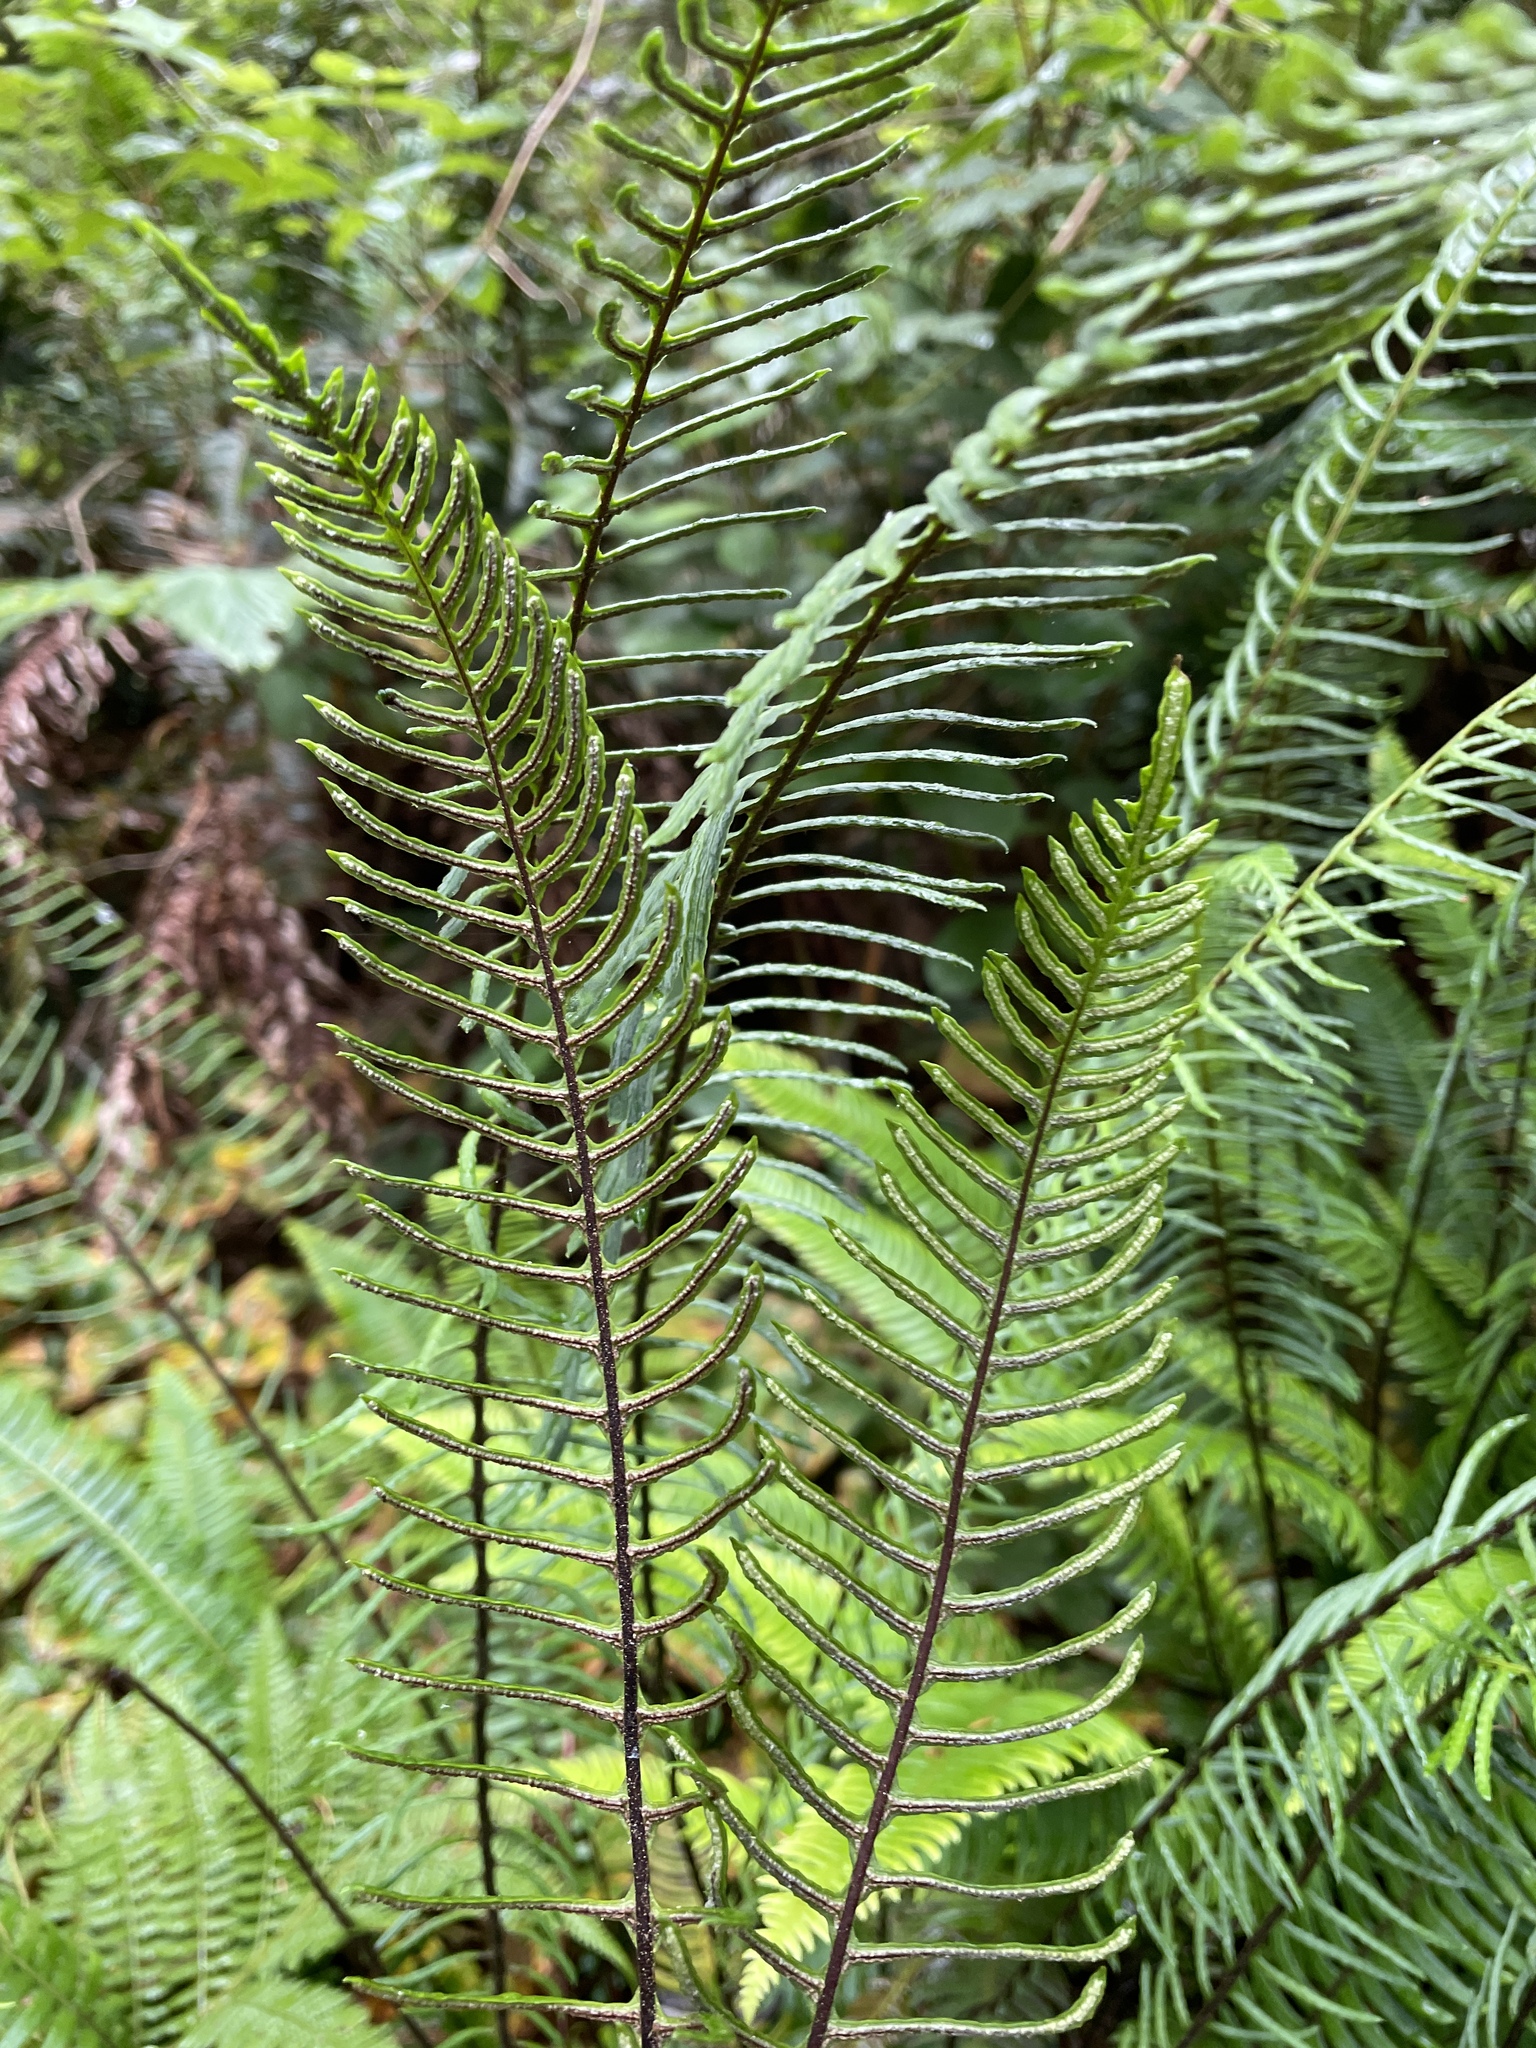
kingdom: Plantae
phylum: Tracheophyta
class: Polypodiopsida
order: Polypodiales
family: Blechnaceae
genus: Struthiopteris
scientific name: Struthiopteris spicant
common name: Deer fern
